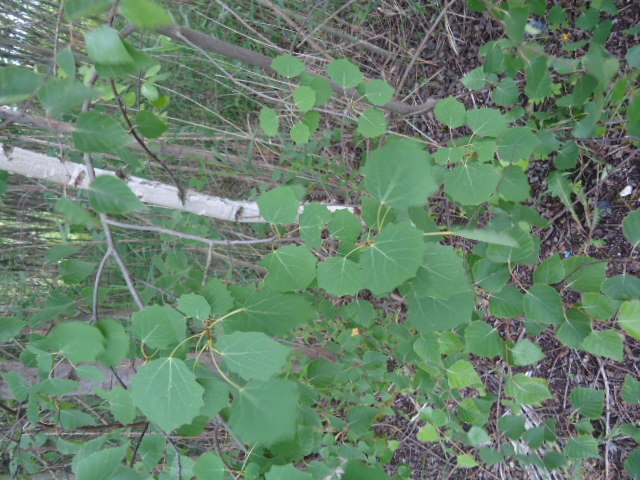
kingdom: Plantae
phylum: Tracheophyta
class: Magnoliopsida
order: Malpighiales
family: Salicaceae
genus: Populus
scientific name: Populus tremula
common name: European aspen
